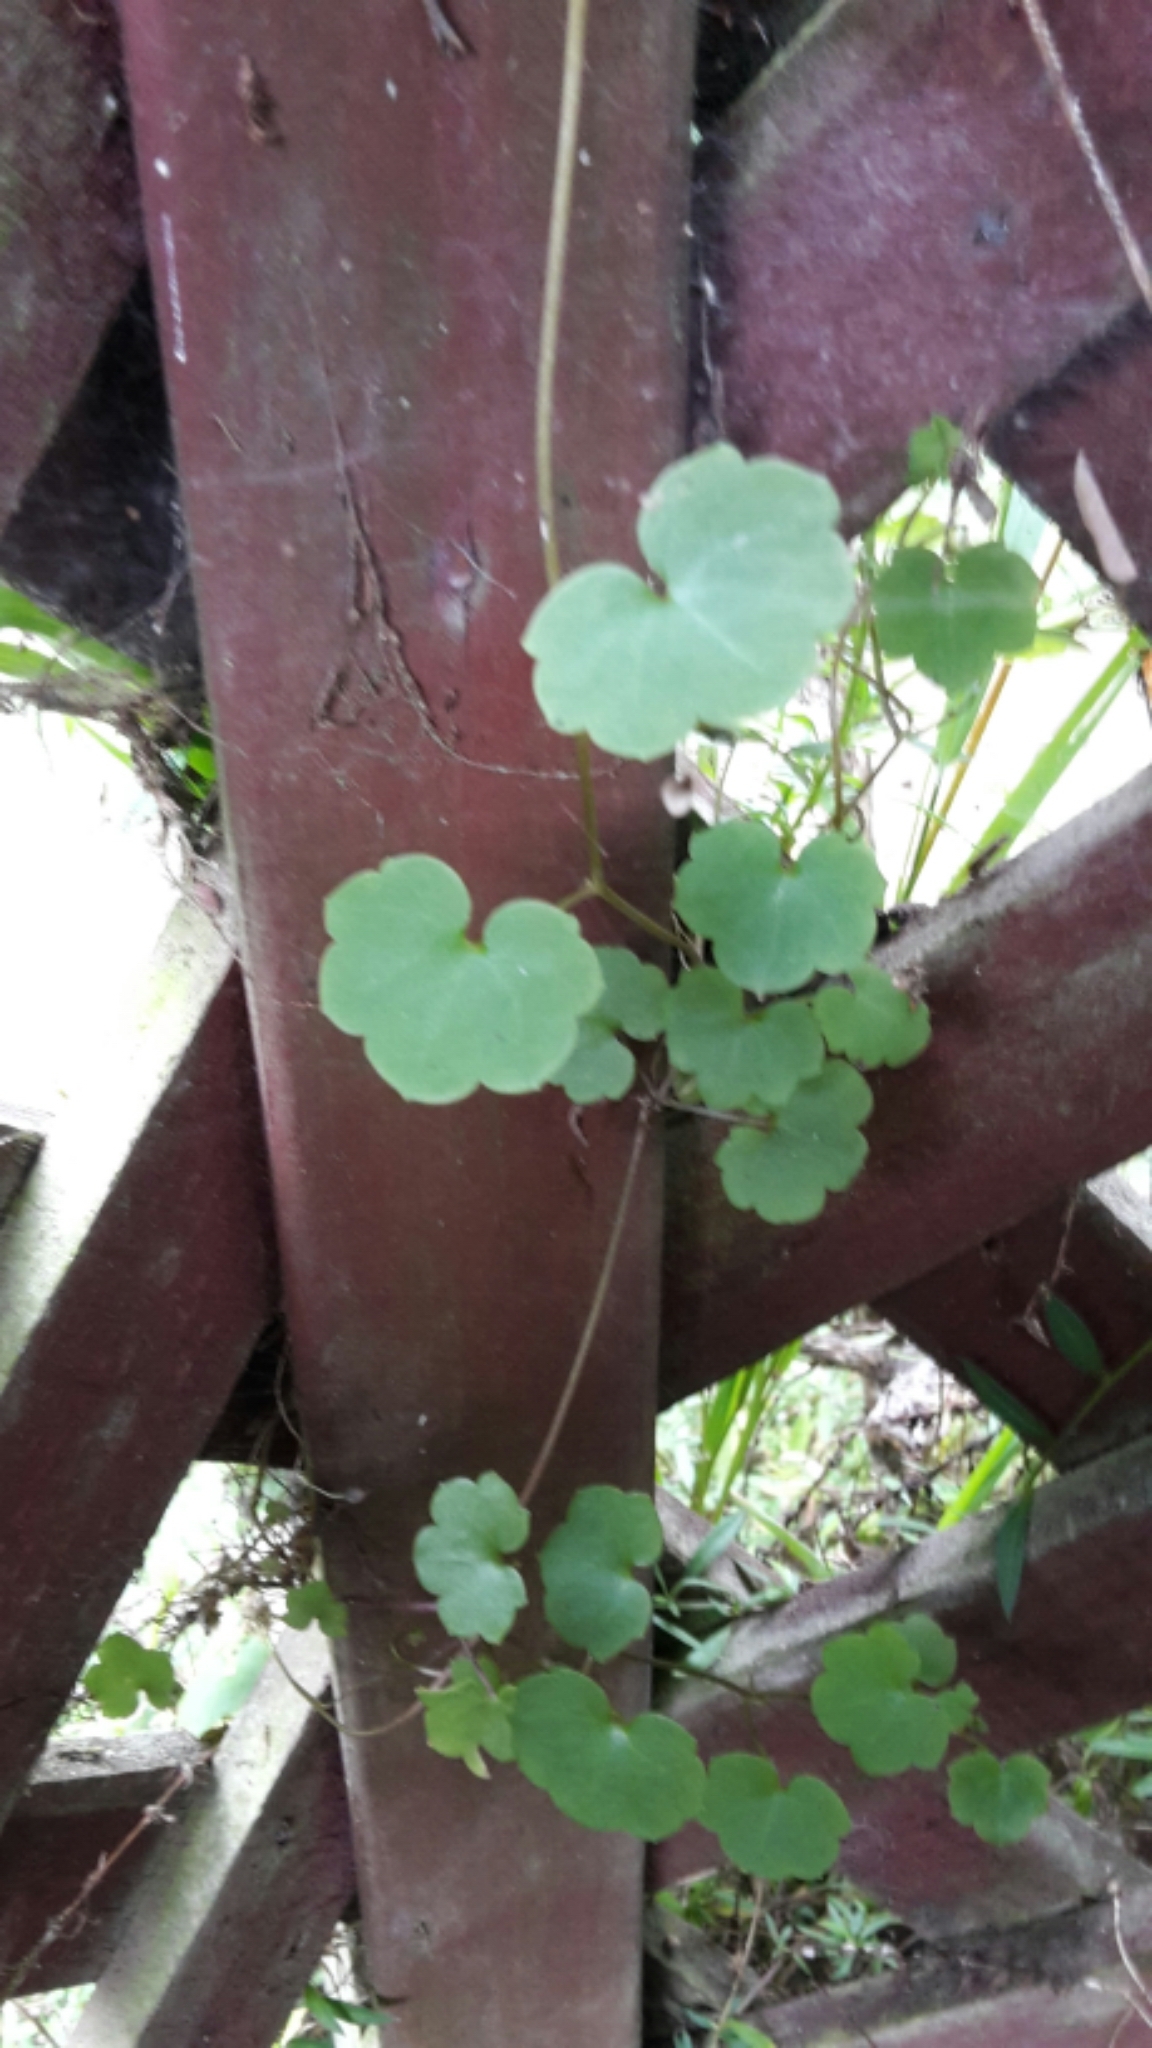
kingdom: Plantae
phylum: Tracheophyta
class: Magnoliopsida
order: Lamiales
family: Plantaginaceae
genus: Cymbalaria
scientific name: Cymbalaria muralis
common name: Ivy-leaved toadflax
